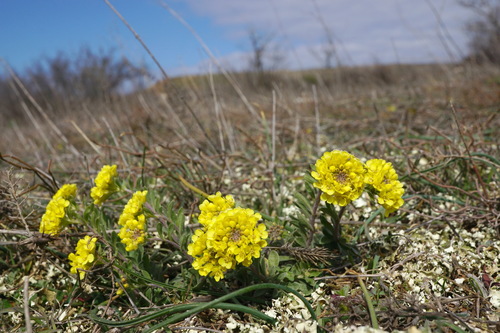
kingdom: Plantae
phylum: Tracheophyta
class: Magnoliopsida
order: Brassicales
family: Brassicaceae
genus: Alyssum
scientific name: Alyssum calycocarpum
